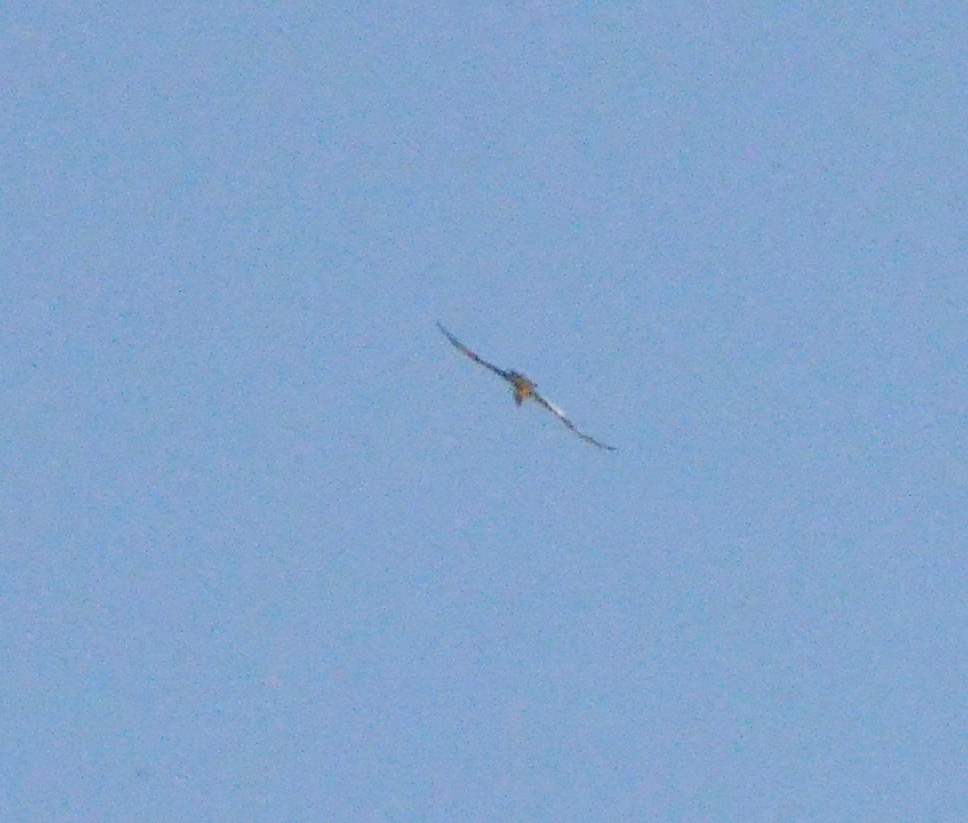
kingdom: Animalia
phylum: Chordata
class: Aves
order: Accipitriformes
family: Accipitridae
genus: Gypaetus
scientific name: Gypaetus barbatus
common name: Bearded vulture
